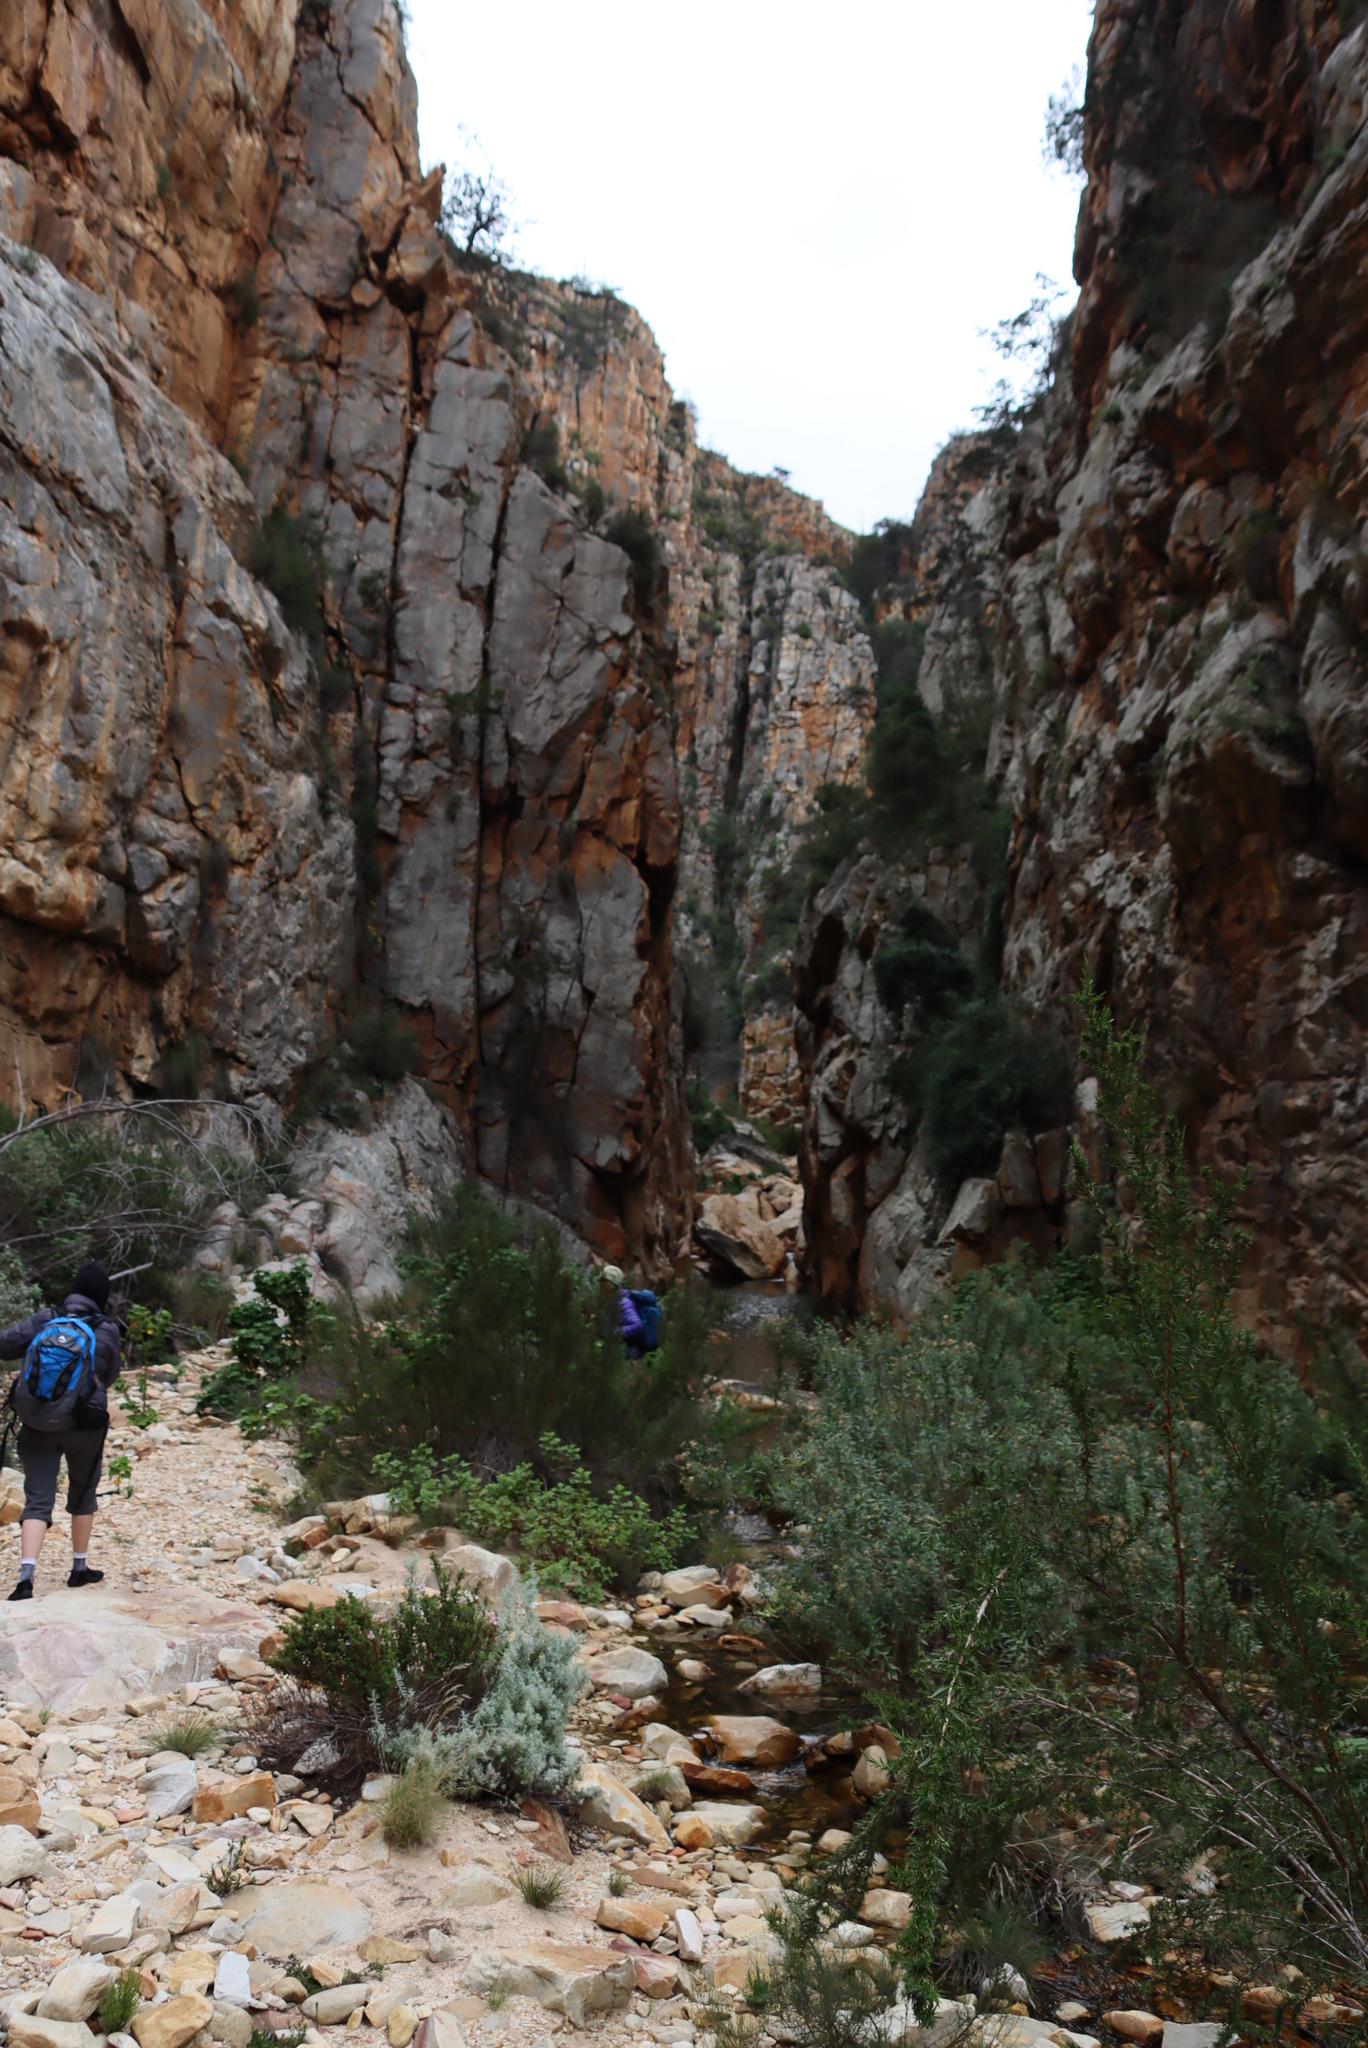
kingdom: Plantae
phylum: Tracheophyta
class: Pinopsida
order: Pinales
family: Cupressaceae
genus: Widdringtonia
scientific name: Widdringtonia schwarzii
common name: Baviaans cedar
